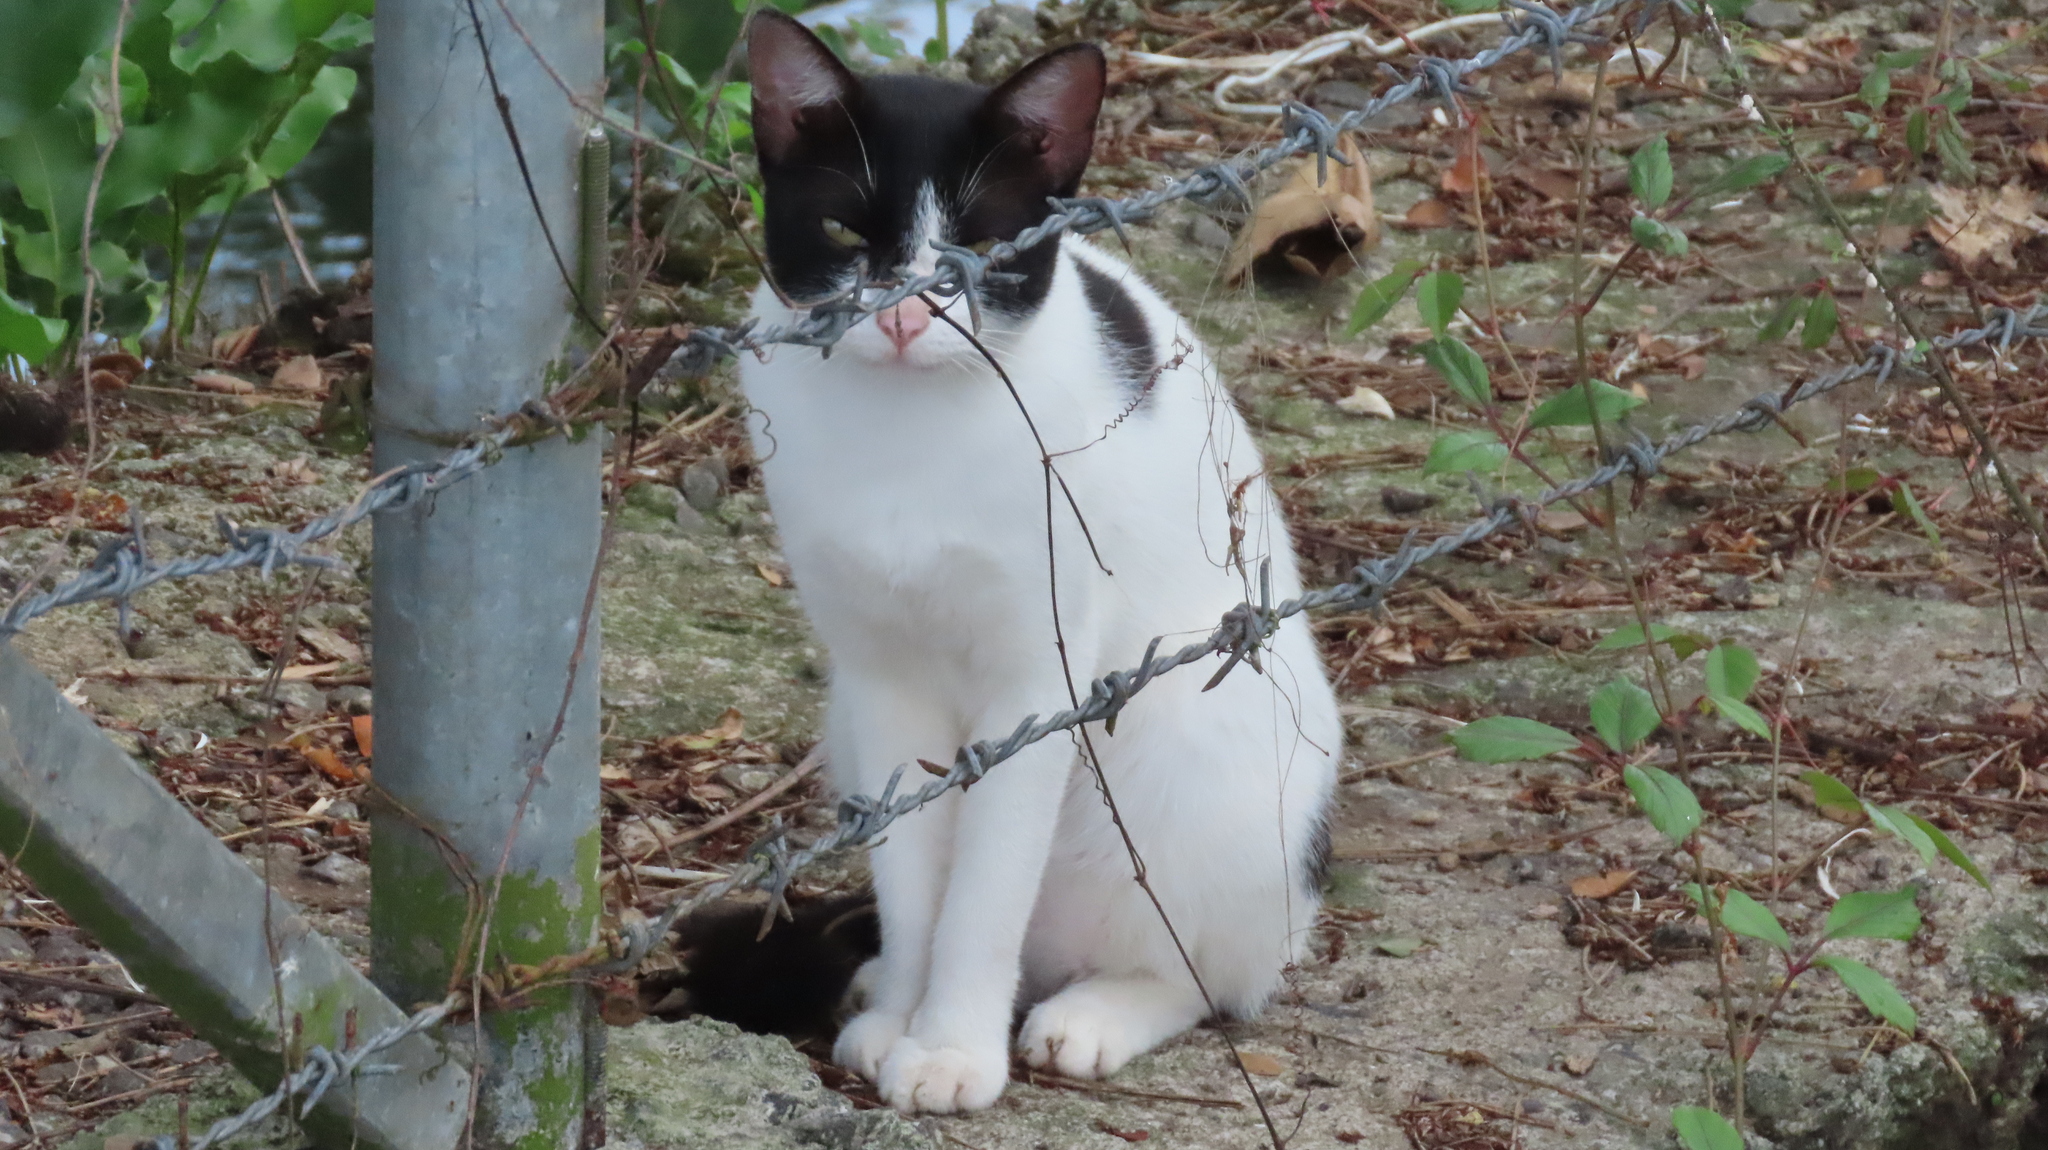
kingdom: Animalia
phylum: Chordata
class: Mammalia
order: Carnivora
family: Felidae
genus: Felis
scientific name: Felis catus
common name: Domestic cat
